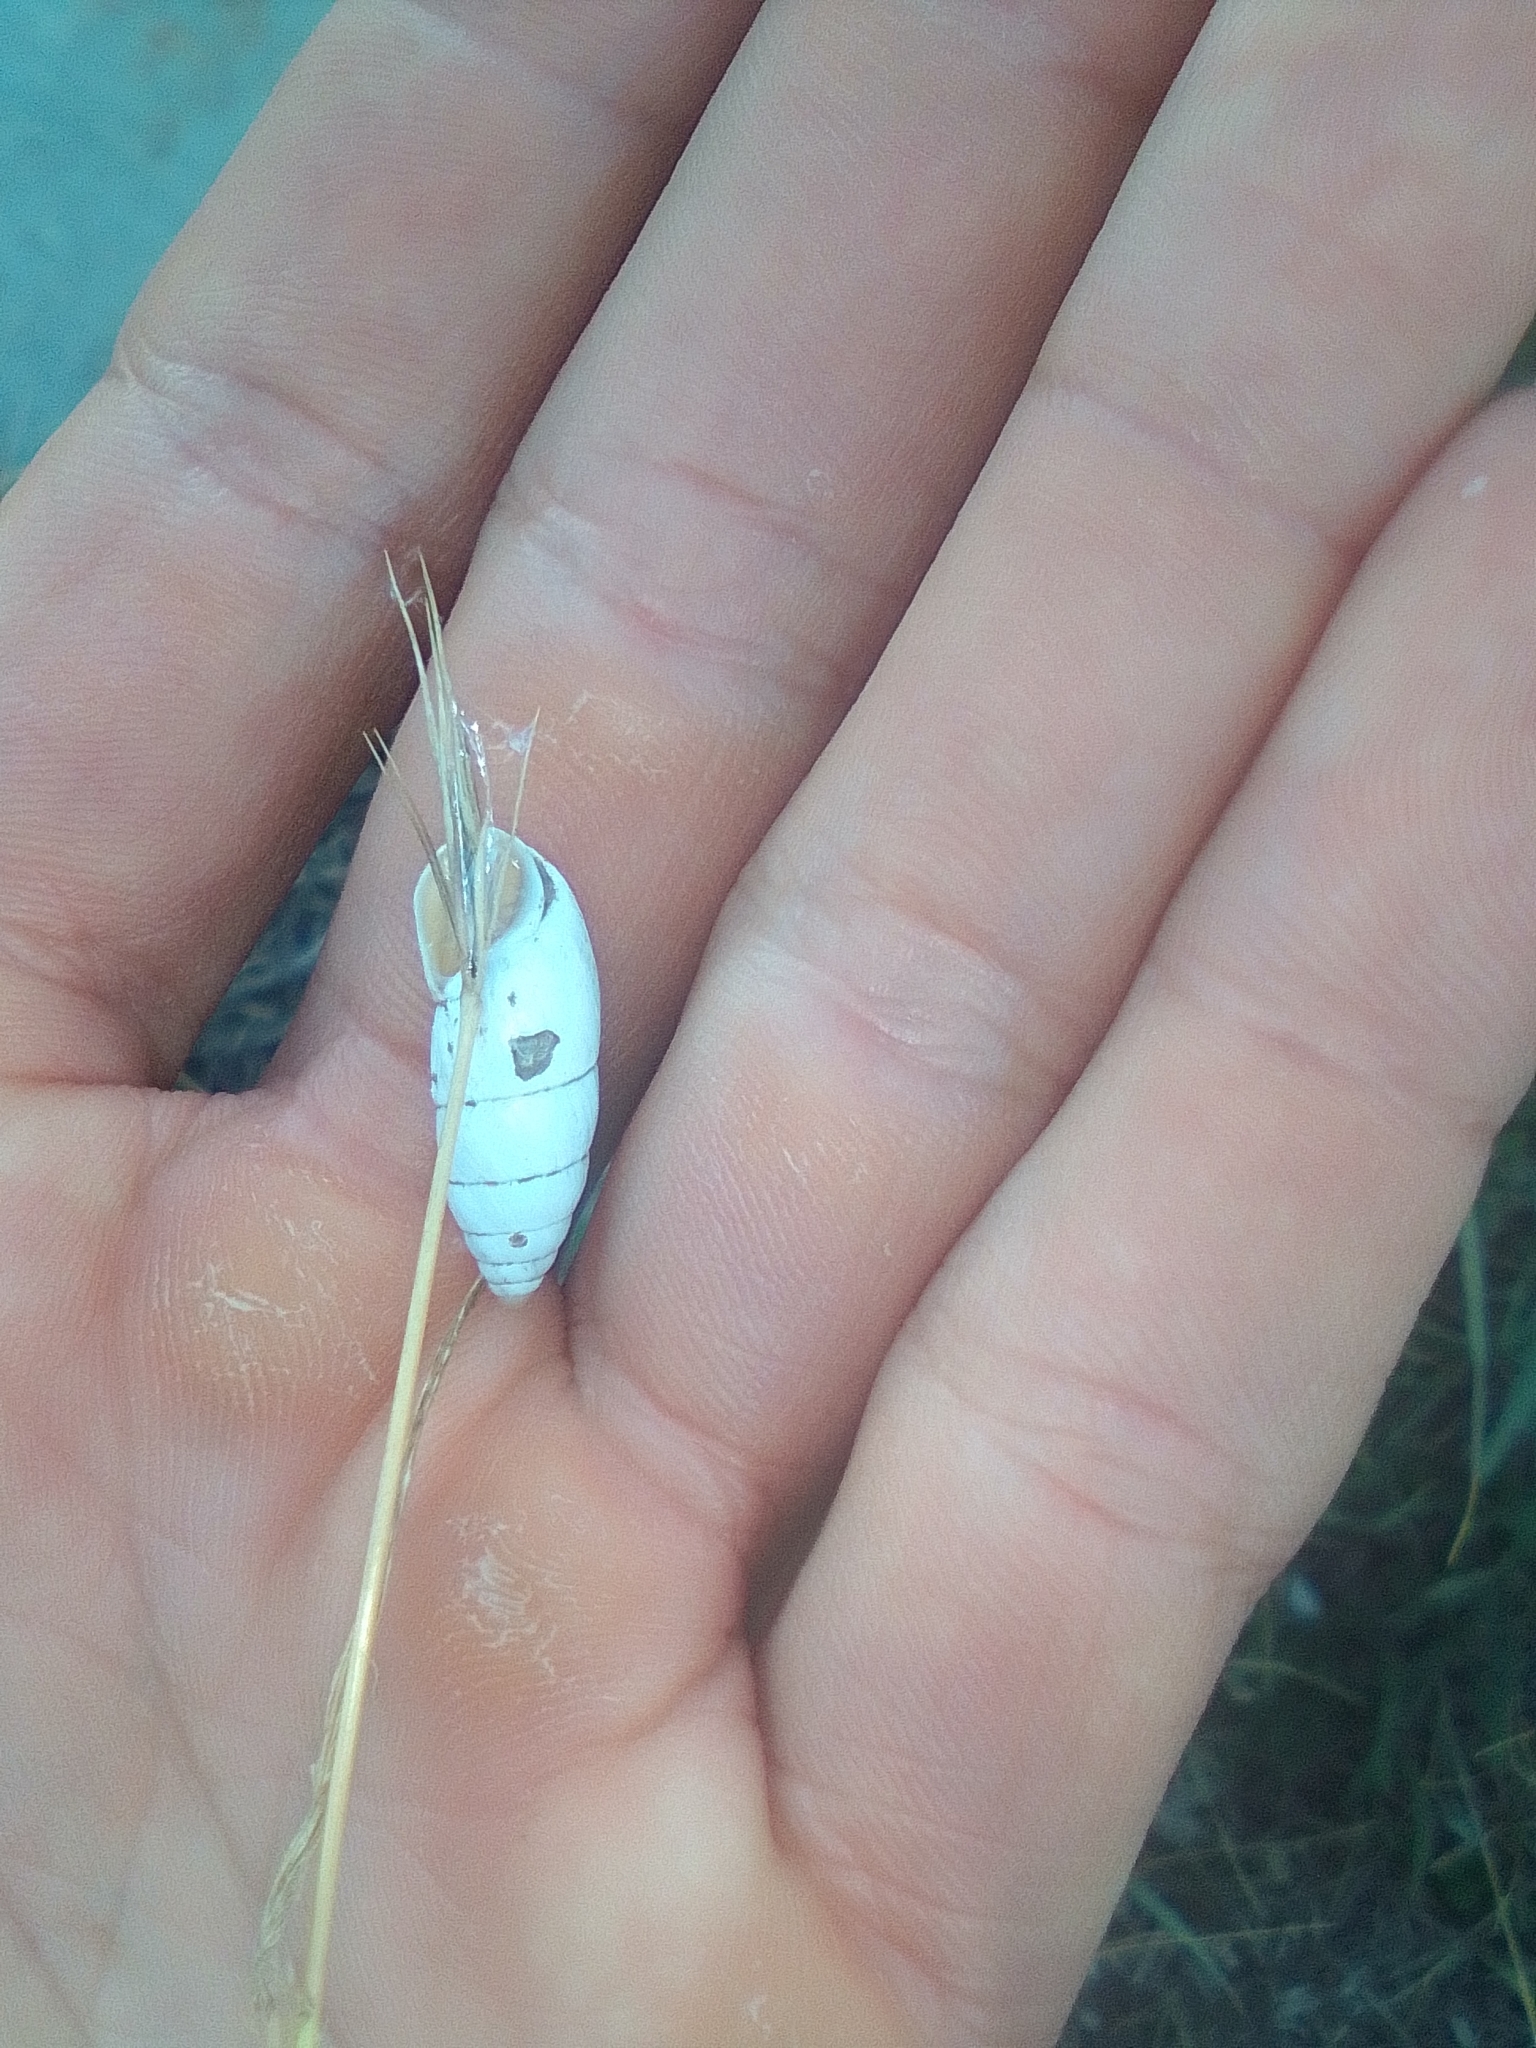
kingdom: Animalia
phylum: Mollusca
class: Gastropoda
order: Stylommatophora
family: Enidae
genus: Brephulopsis
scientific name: Brephulopsis cylindrica
